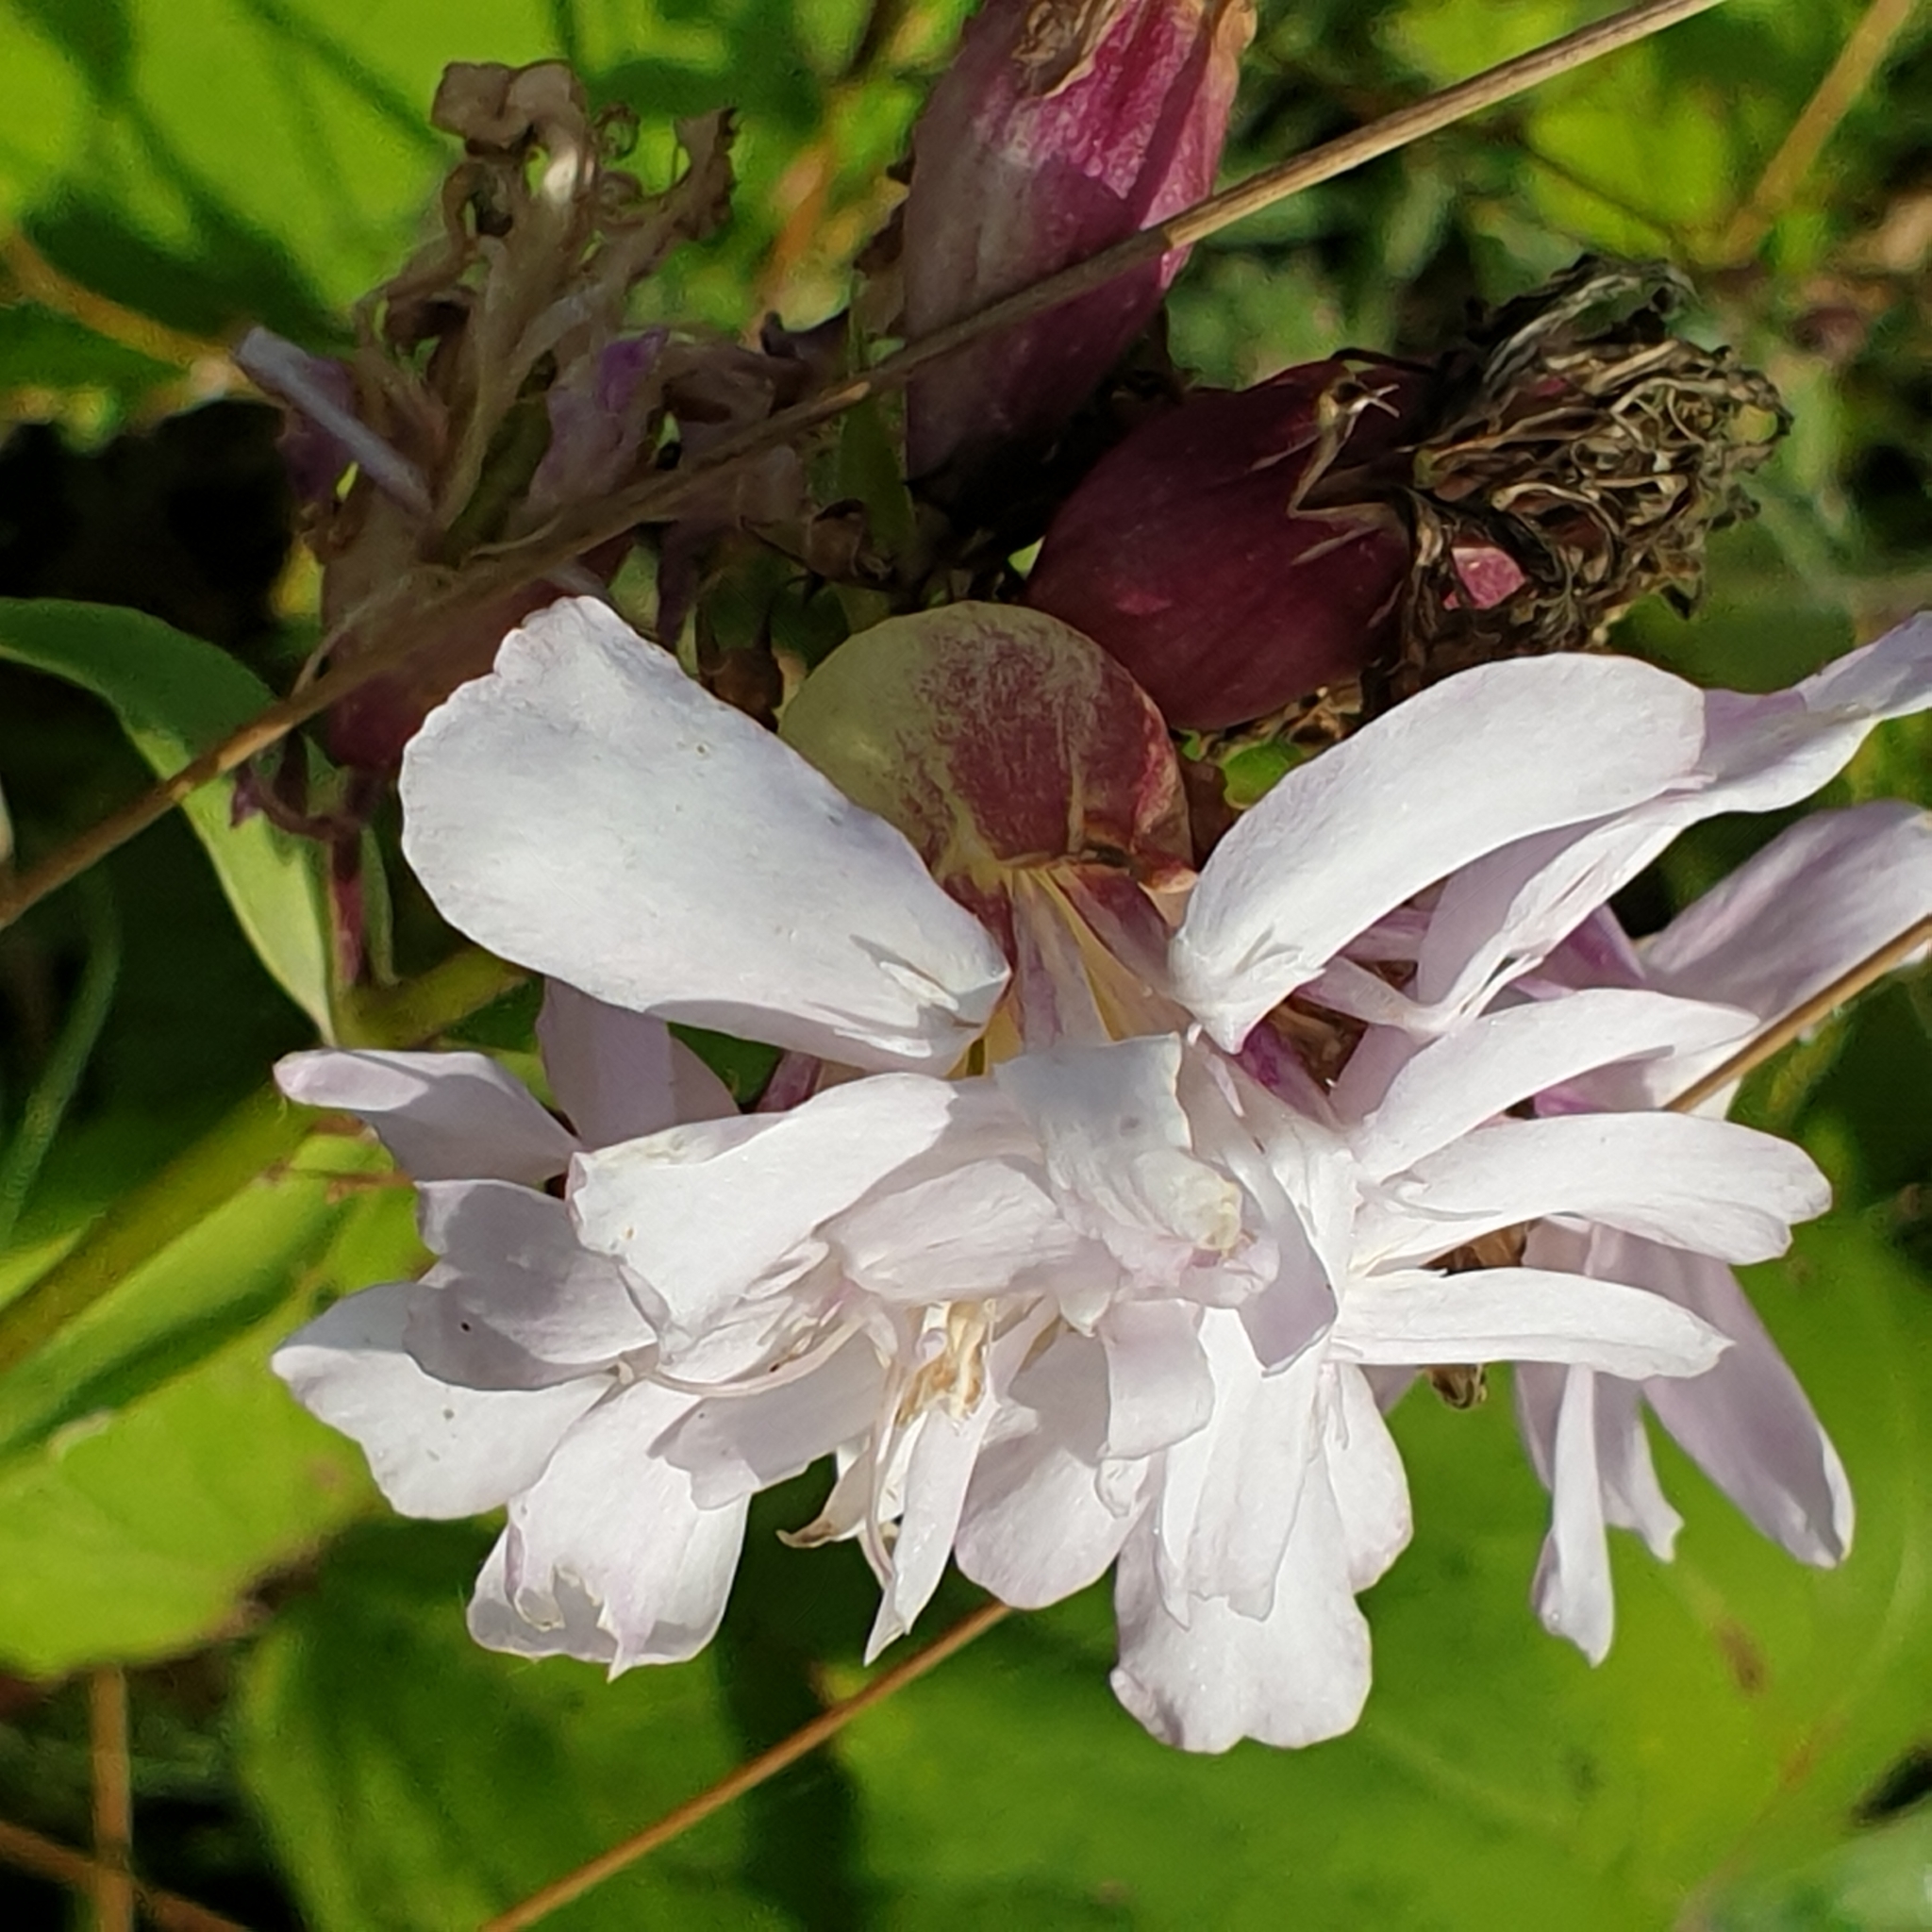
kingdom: Plantae
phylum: Tracheophyta
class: Magnoliopsida
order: Caryophyllales
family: Caryophyllaceae
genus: Saponaria
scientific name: Saponaria officinalis
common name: Soapwort
